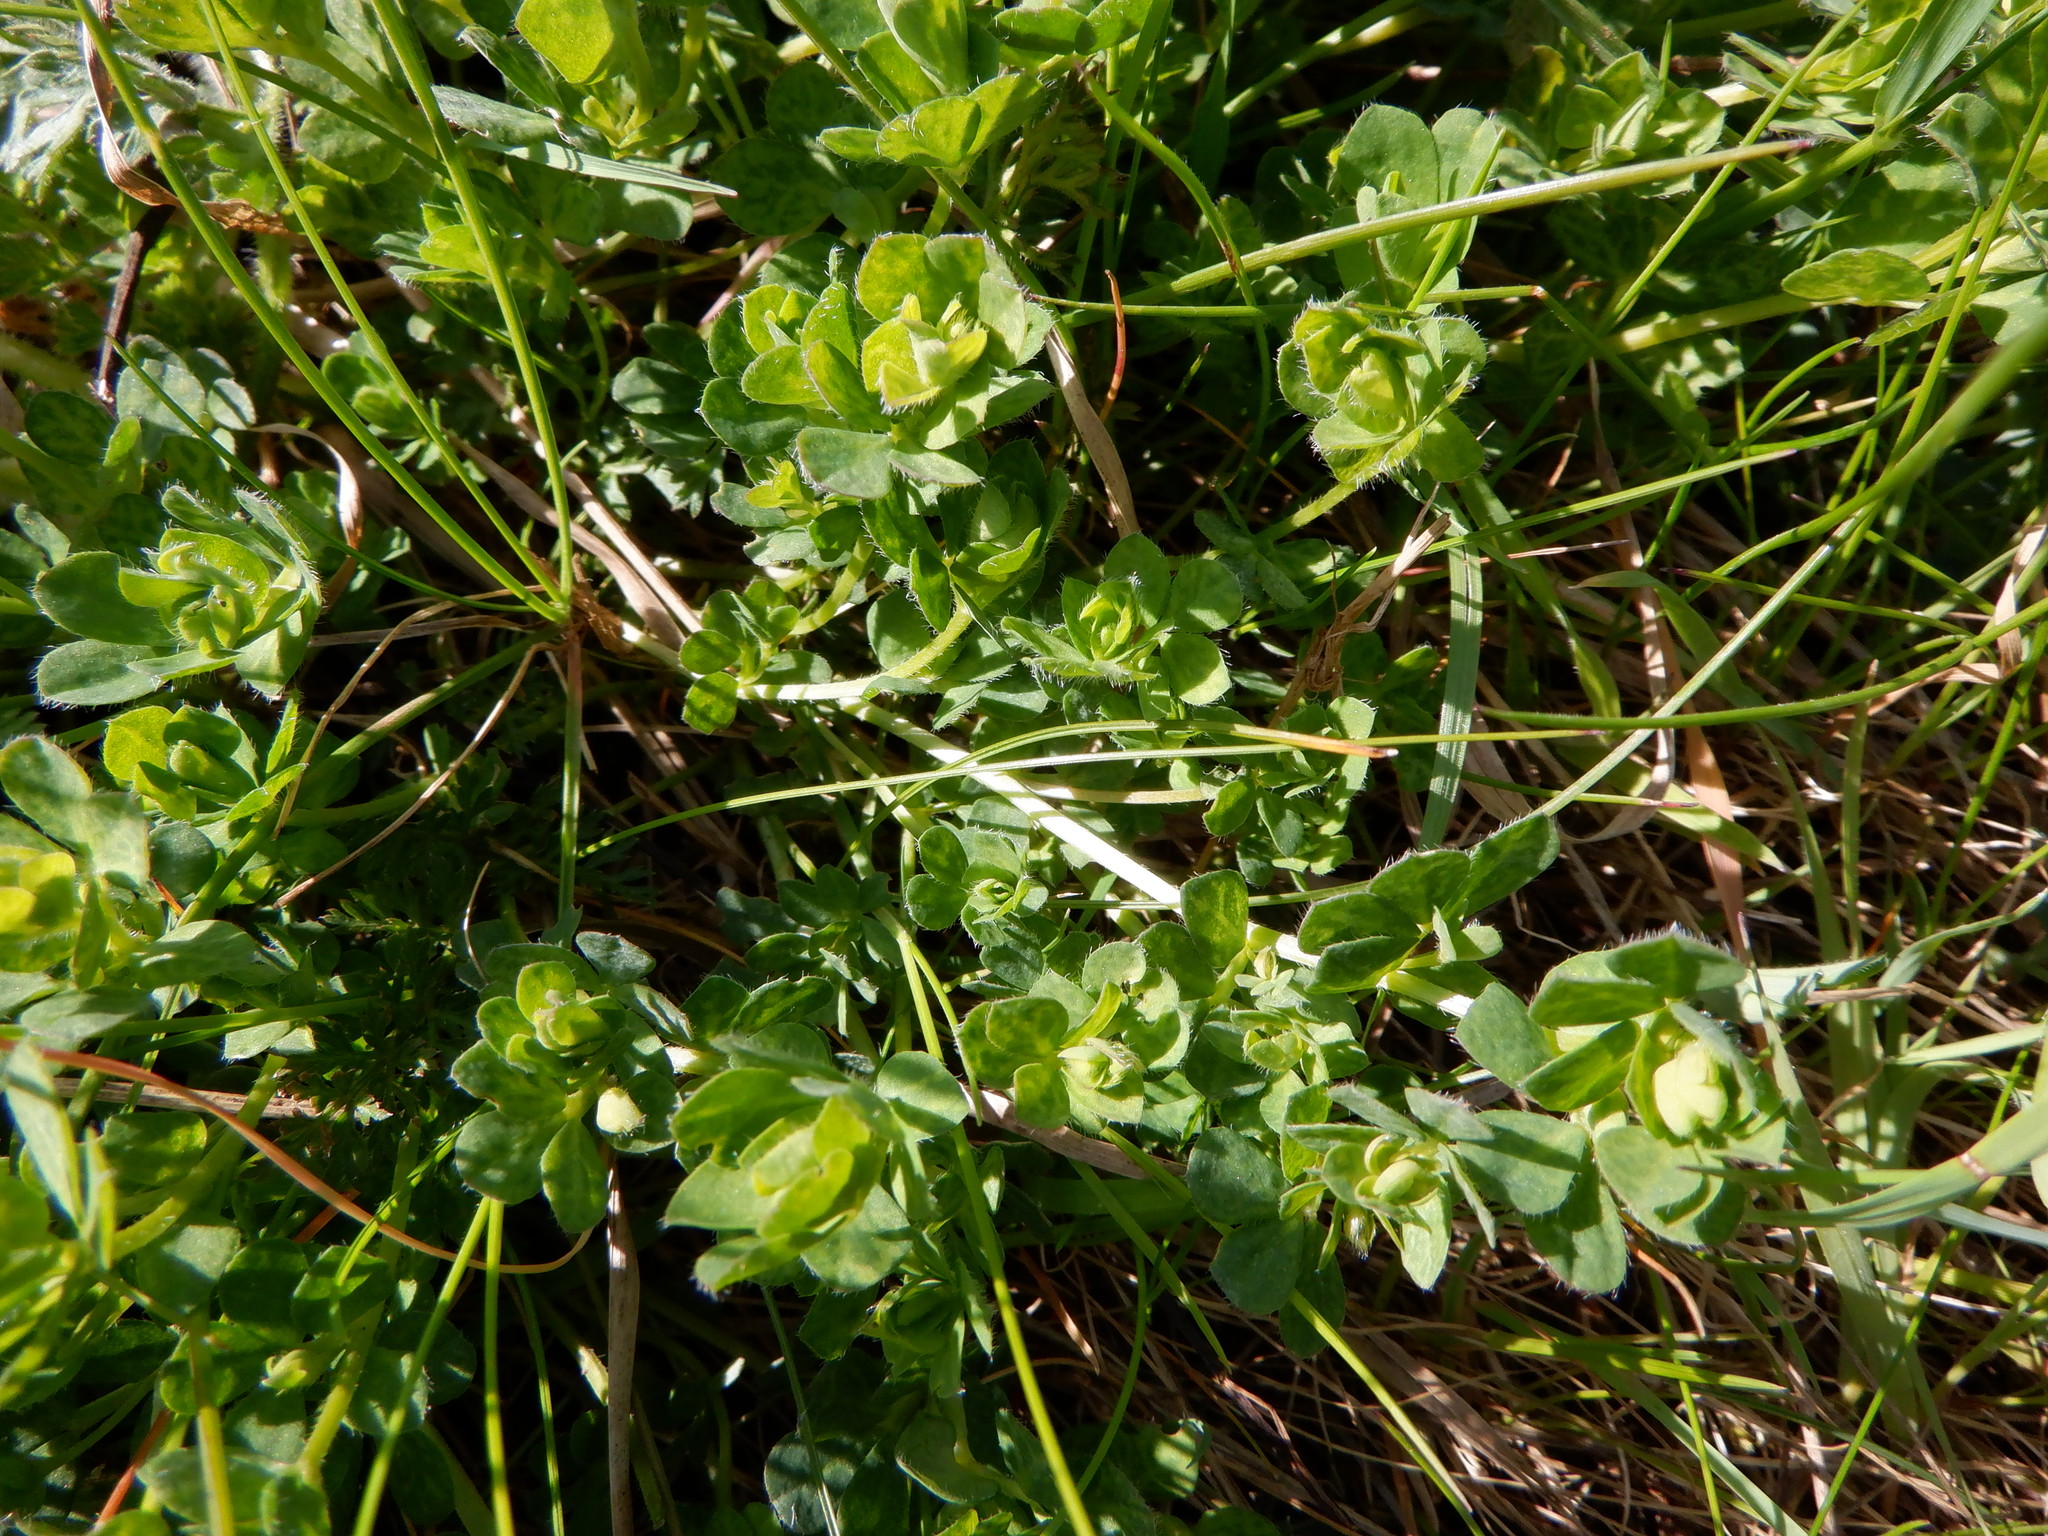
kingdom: Plantae
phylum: Tracheophyta
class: Magnoliopsida
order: Fabales
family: Fabaceae
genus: Lotus
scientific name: Lotus corniculatus
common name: Common bird's-foot-trefoil
